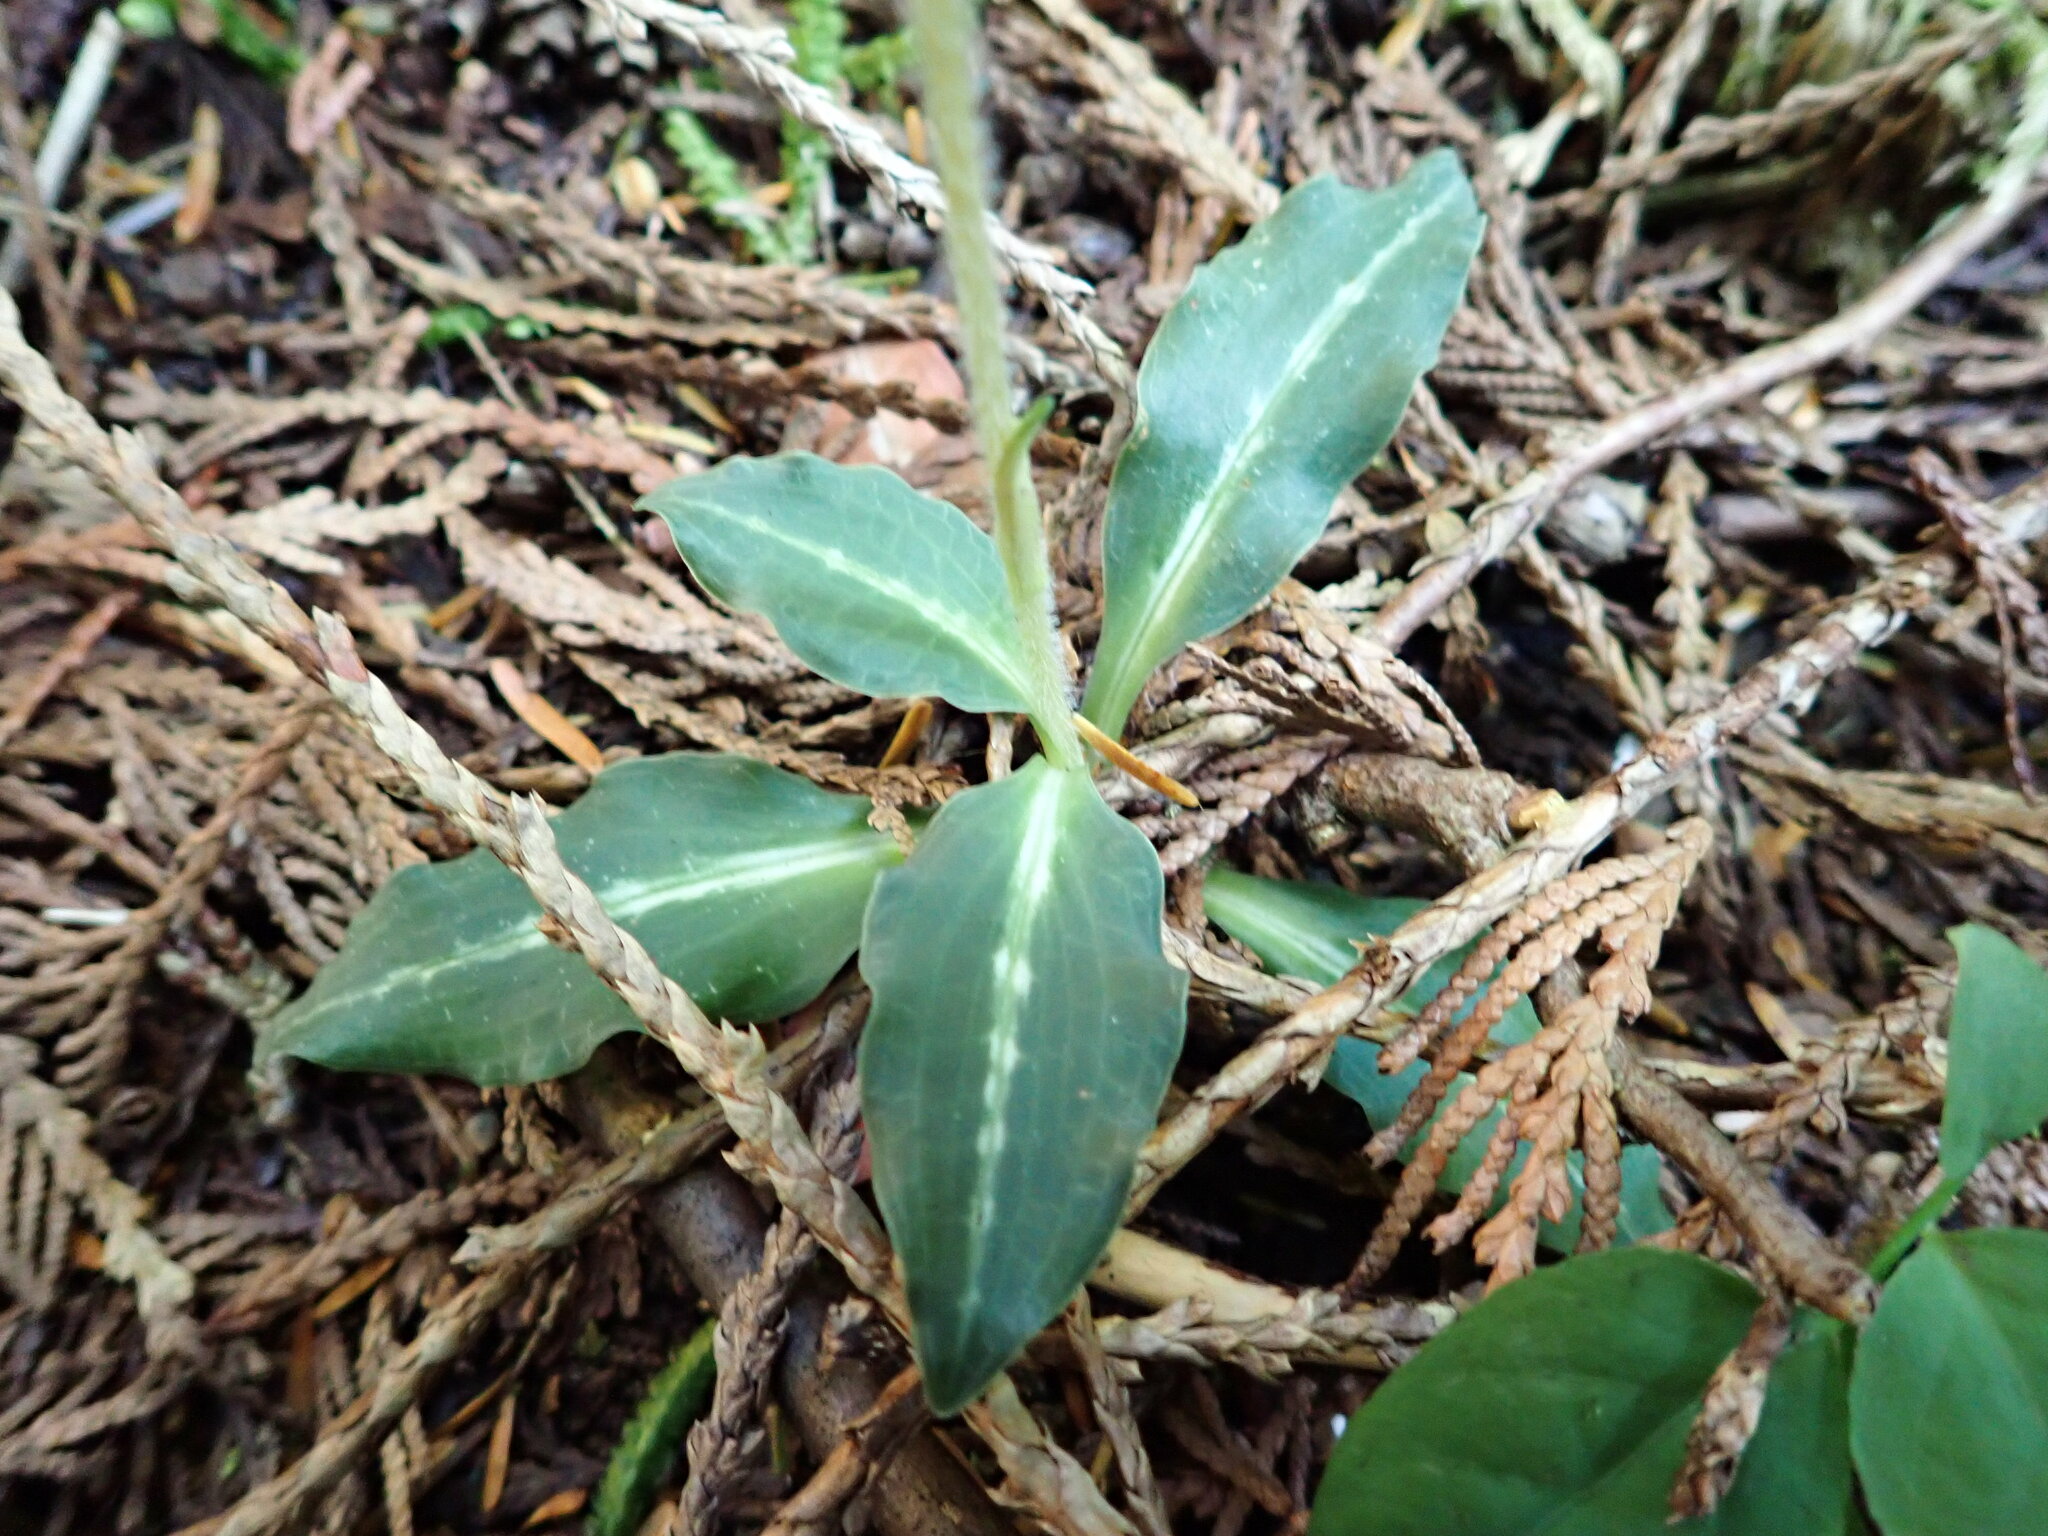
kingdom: Plantae
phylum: Tracheophyta
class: Liliopsida
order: Asparagales
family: Orchidaceae
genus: Goodyera
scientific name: Goodyera oblongifolia
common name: Giant rattlesnake-plantain
